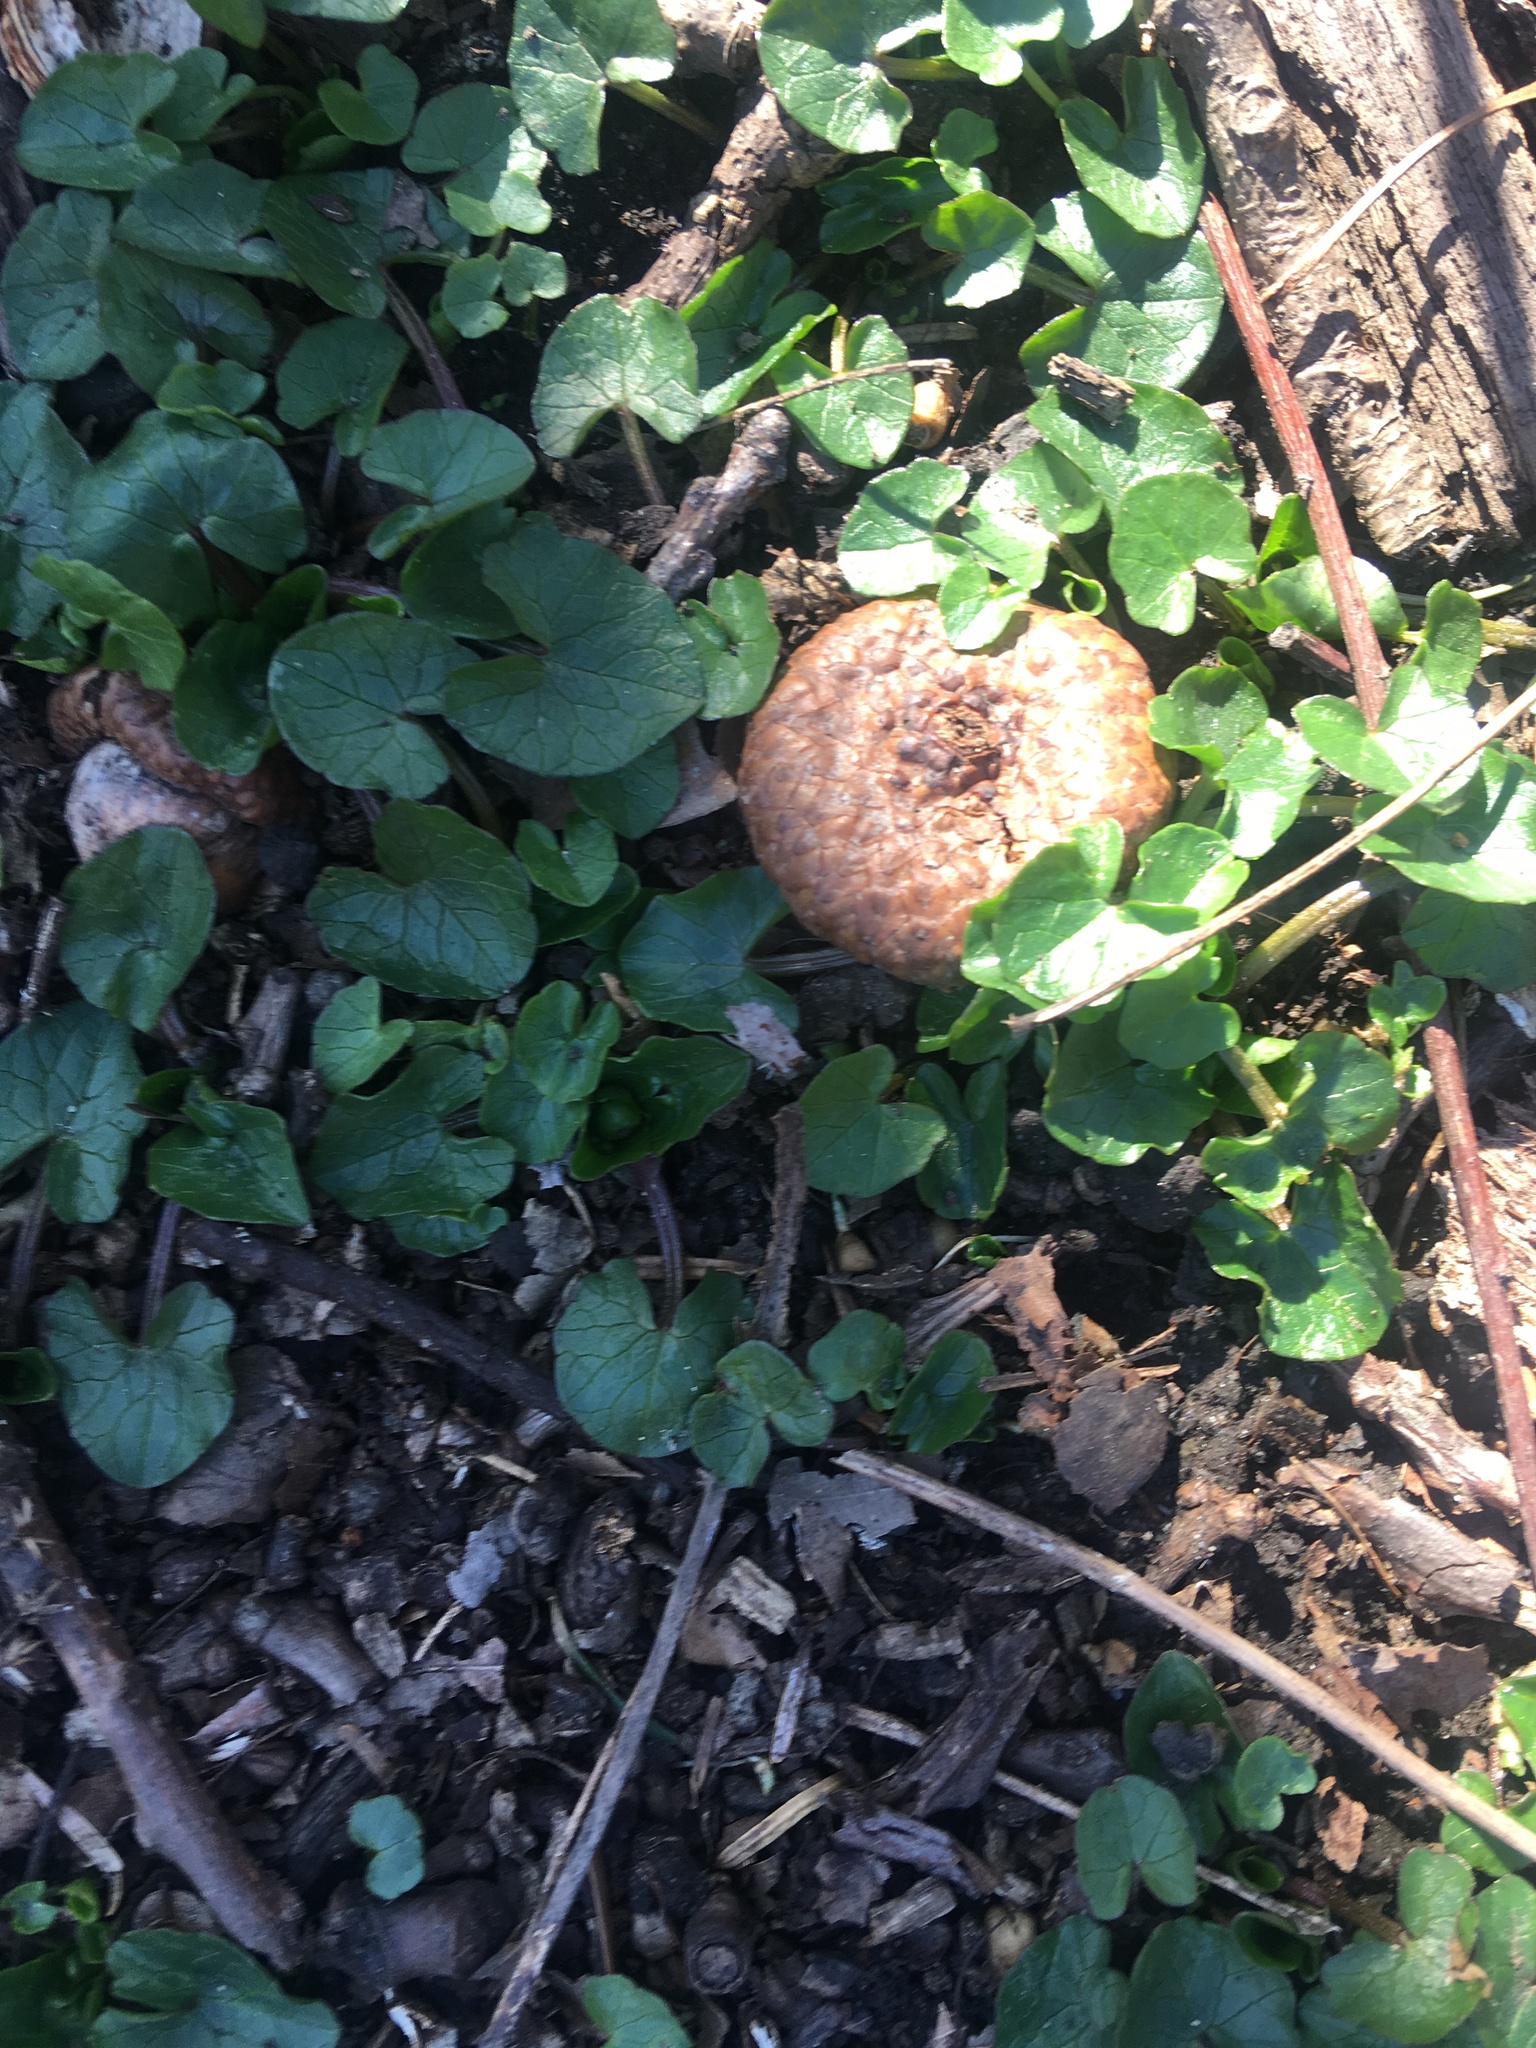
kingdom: Plantae
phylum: Tracheophyta
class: Magnoliopsida
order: Ranunculales
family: Ranunculaceae
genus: Ficaria
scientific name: Ficaria verna
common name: Lesser celandine
